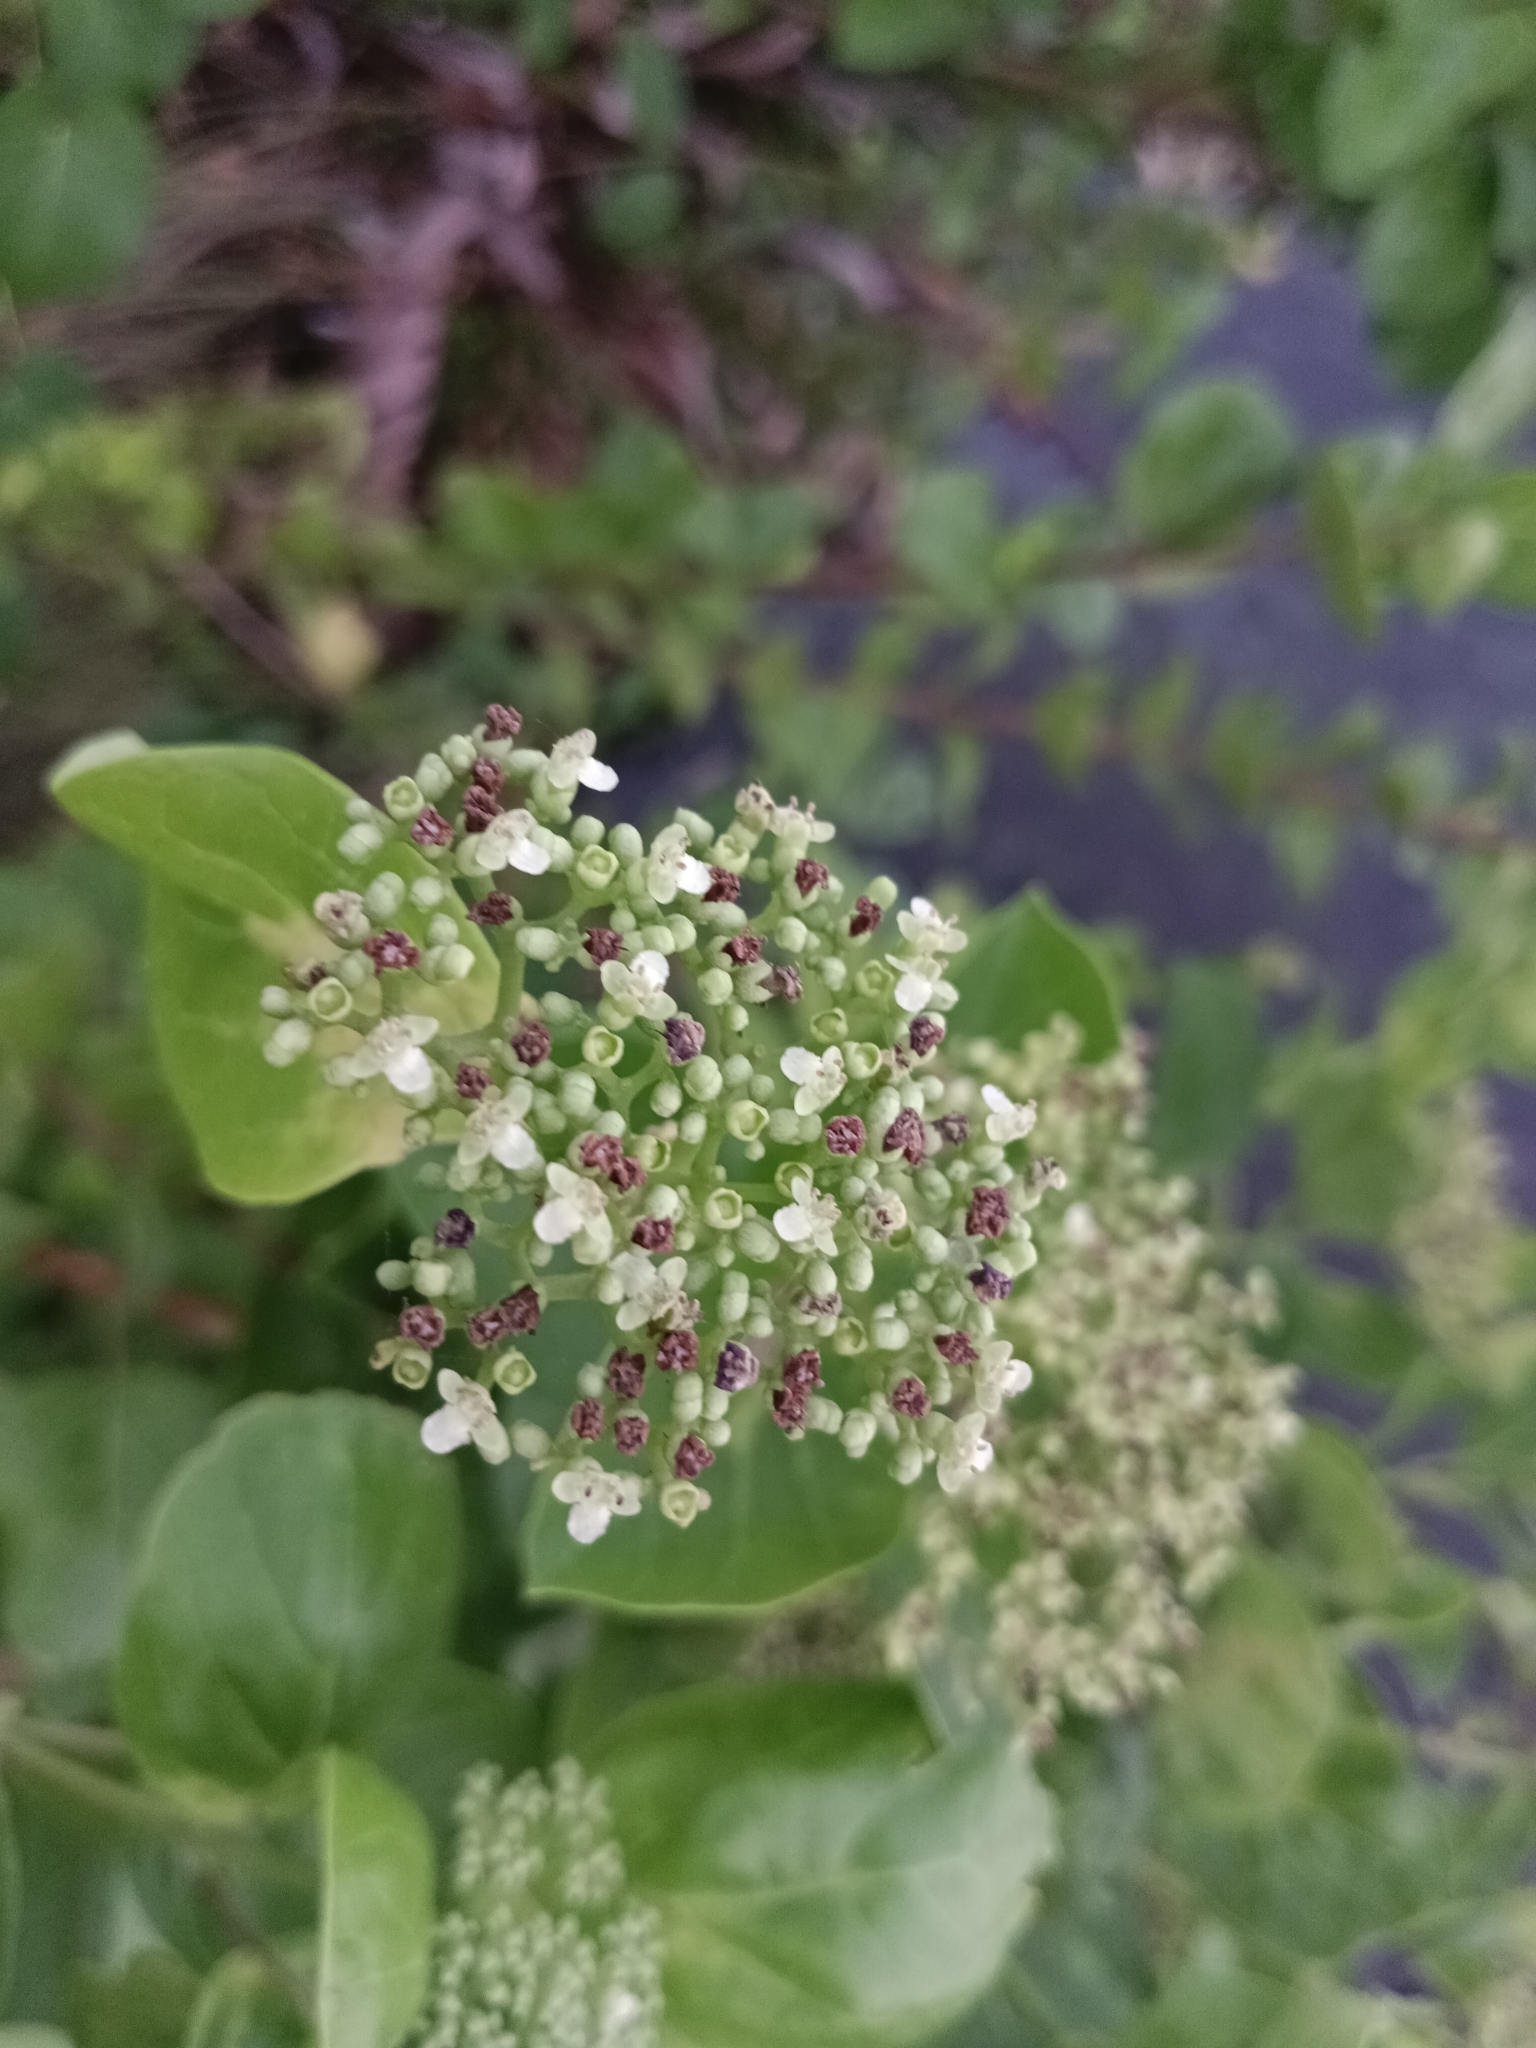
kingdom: Plantae
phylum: Tracheophyta
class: Magnoliopsida
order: Lamiales
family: Lamiaceae
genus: Premna
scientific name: Premna serratifolia
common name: Bastard guelder
